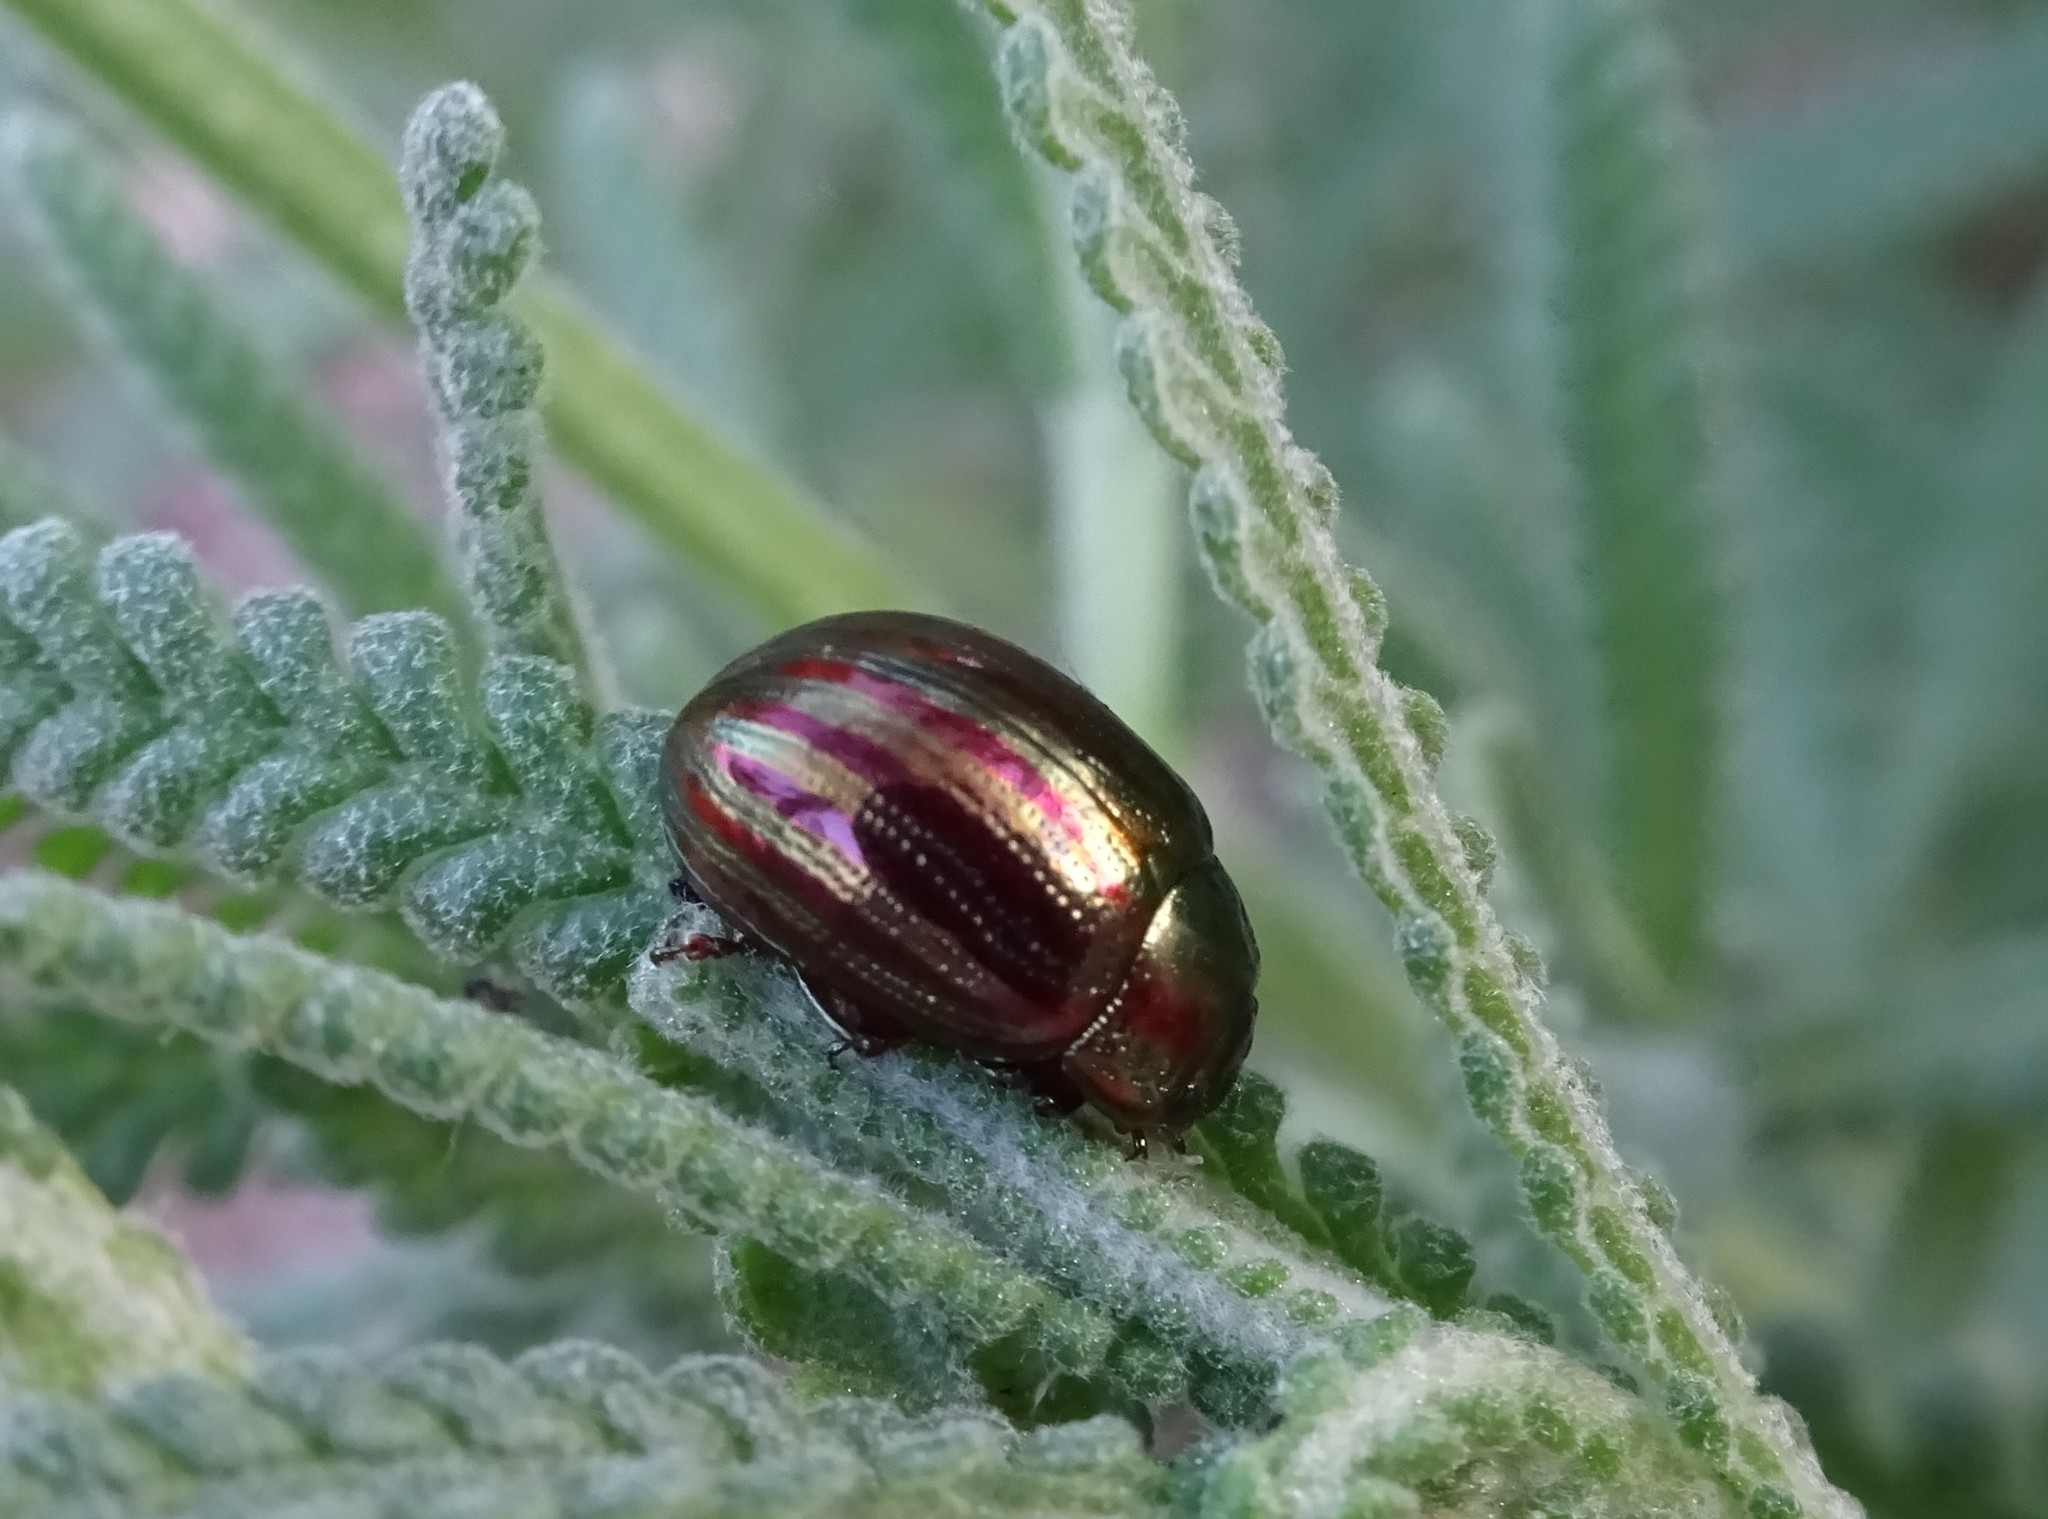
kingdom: Animalia
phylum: Arthropoda
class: Insecta
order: Coleoptera
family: Chrysomelidae
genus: Chrysolina
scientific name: Chrysolina americana
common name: Rosemary beetle
